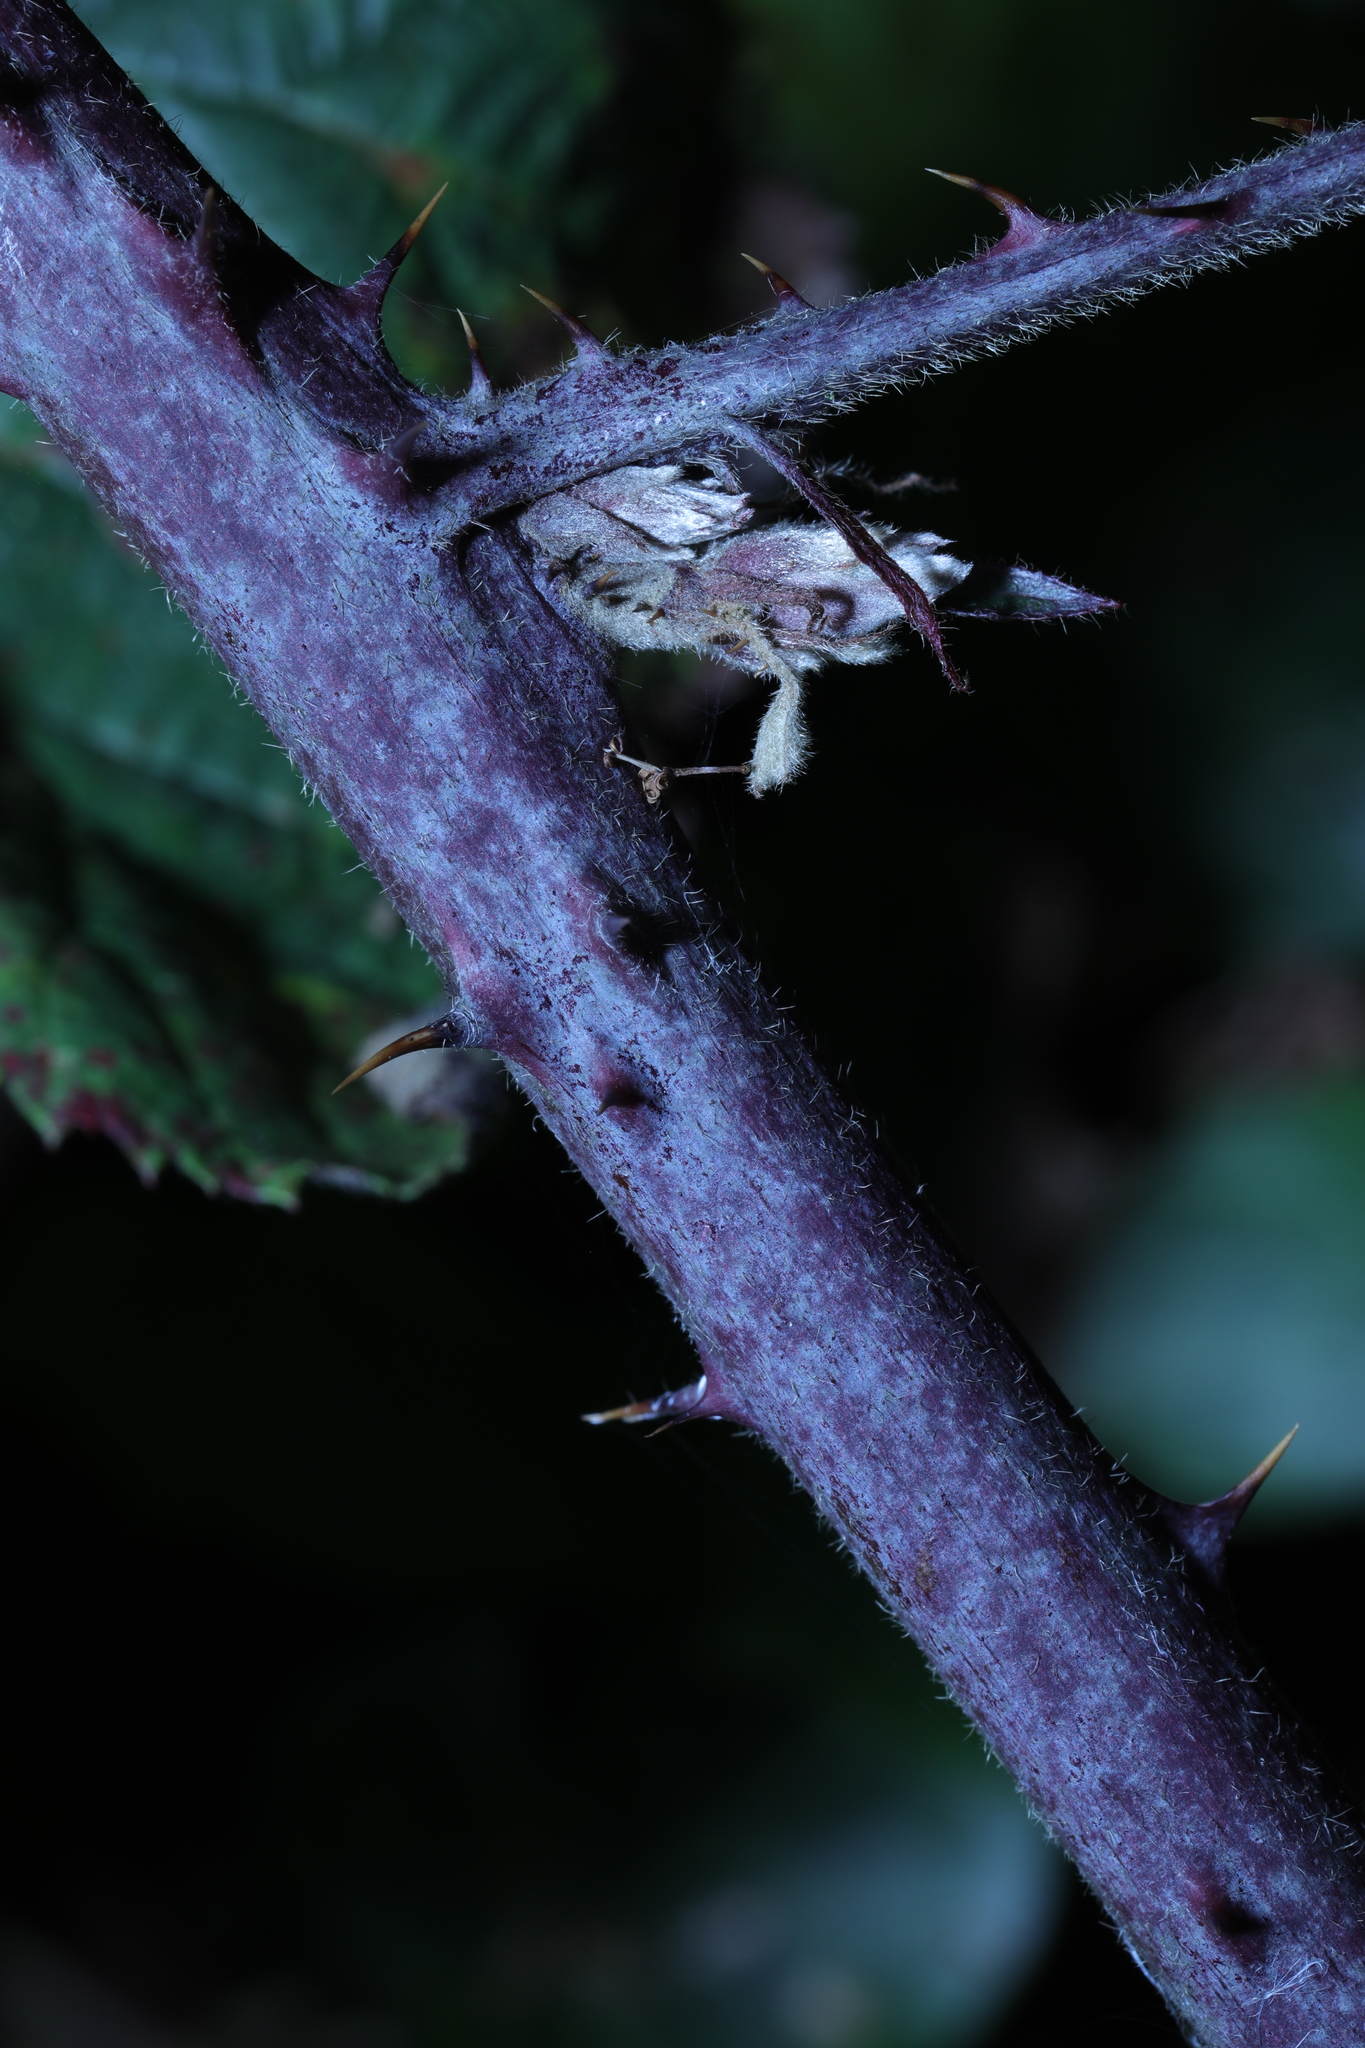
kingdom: Plantae
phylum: Tracheophyta
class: Magnoliopsida
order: Rosales
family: Rosaceae
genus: Rubus
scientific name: Rubus vestitus
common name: European blackberry
